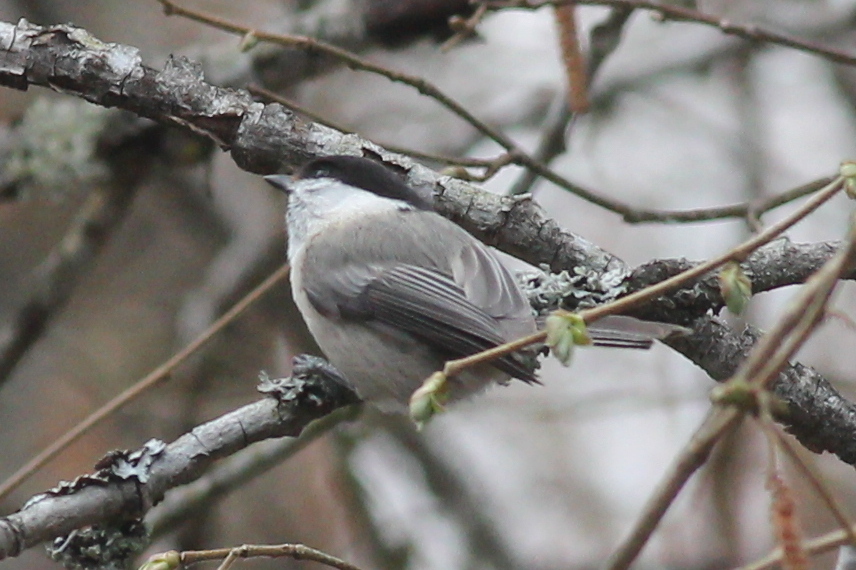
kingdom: Animalia
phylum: Chordata
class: Aves
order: Passeriformes
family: Paridae
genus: Poecile
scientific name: Poecile montanus
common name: Willow tit
